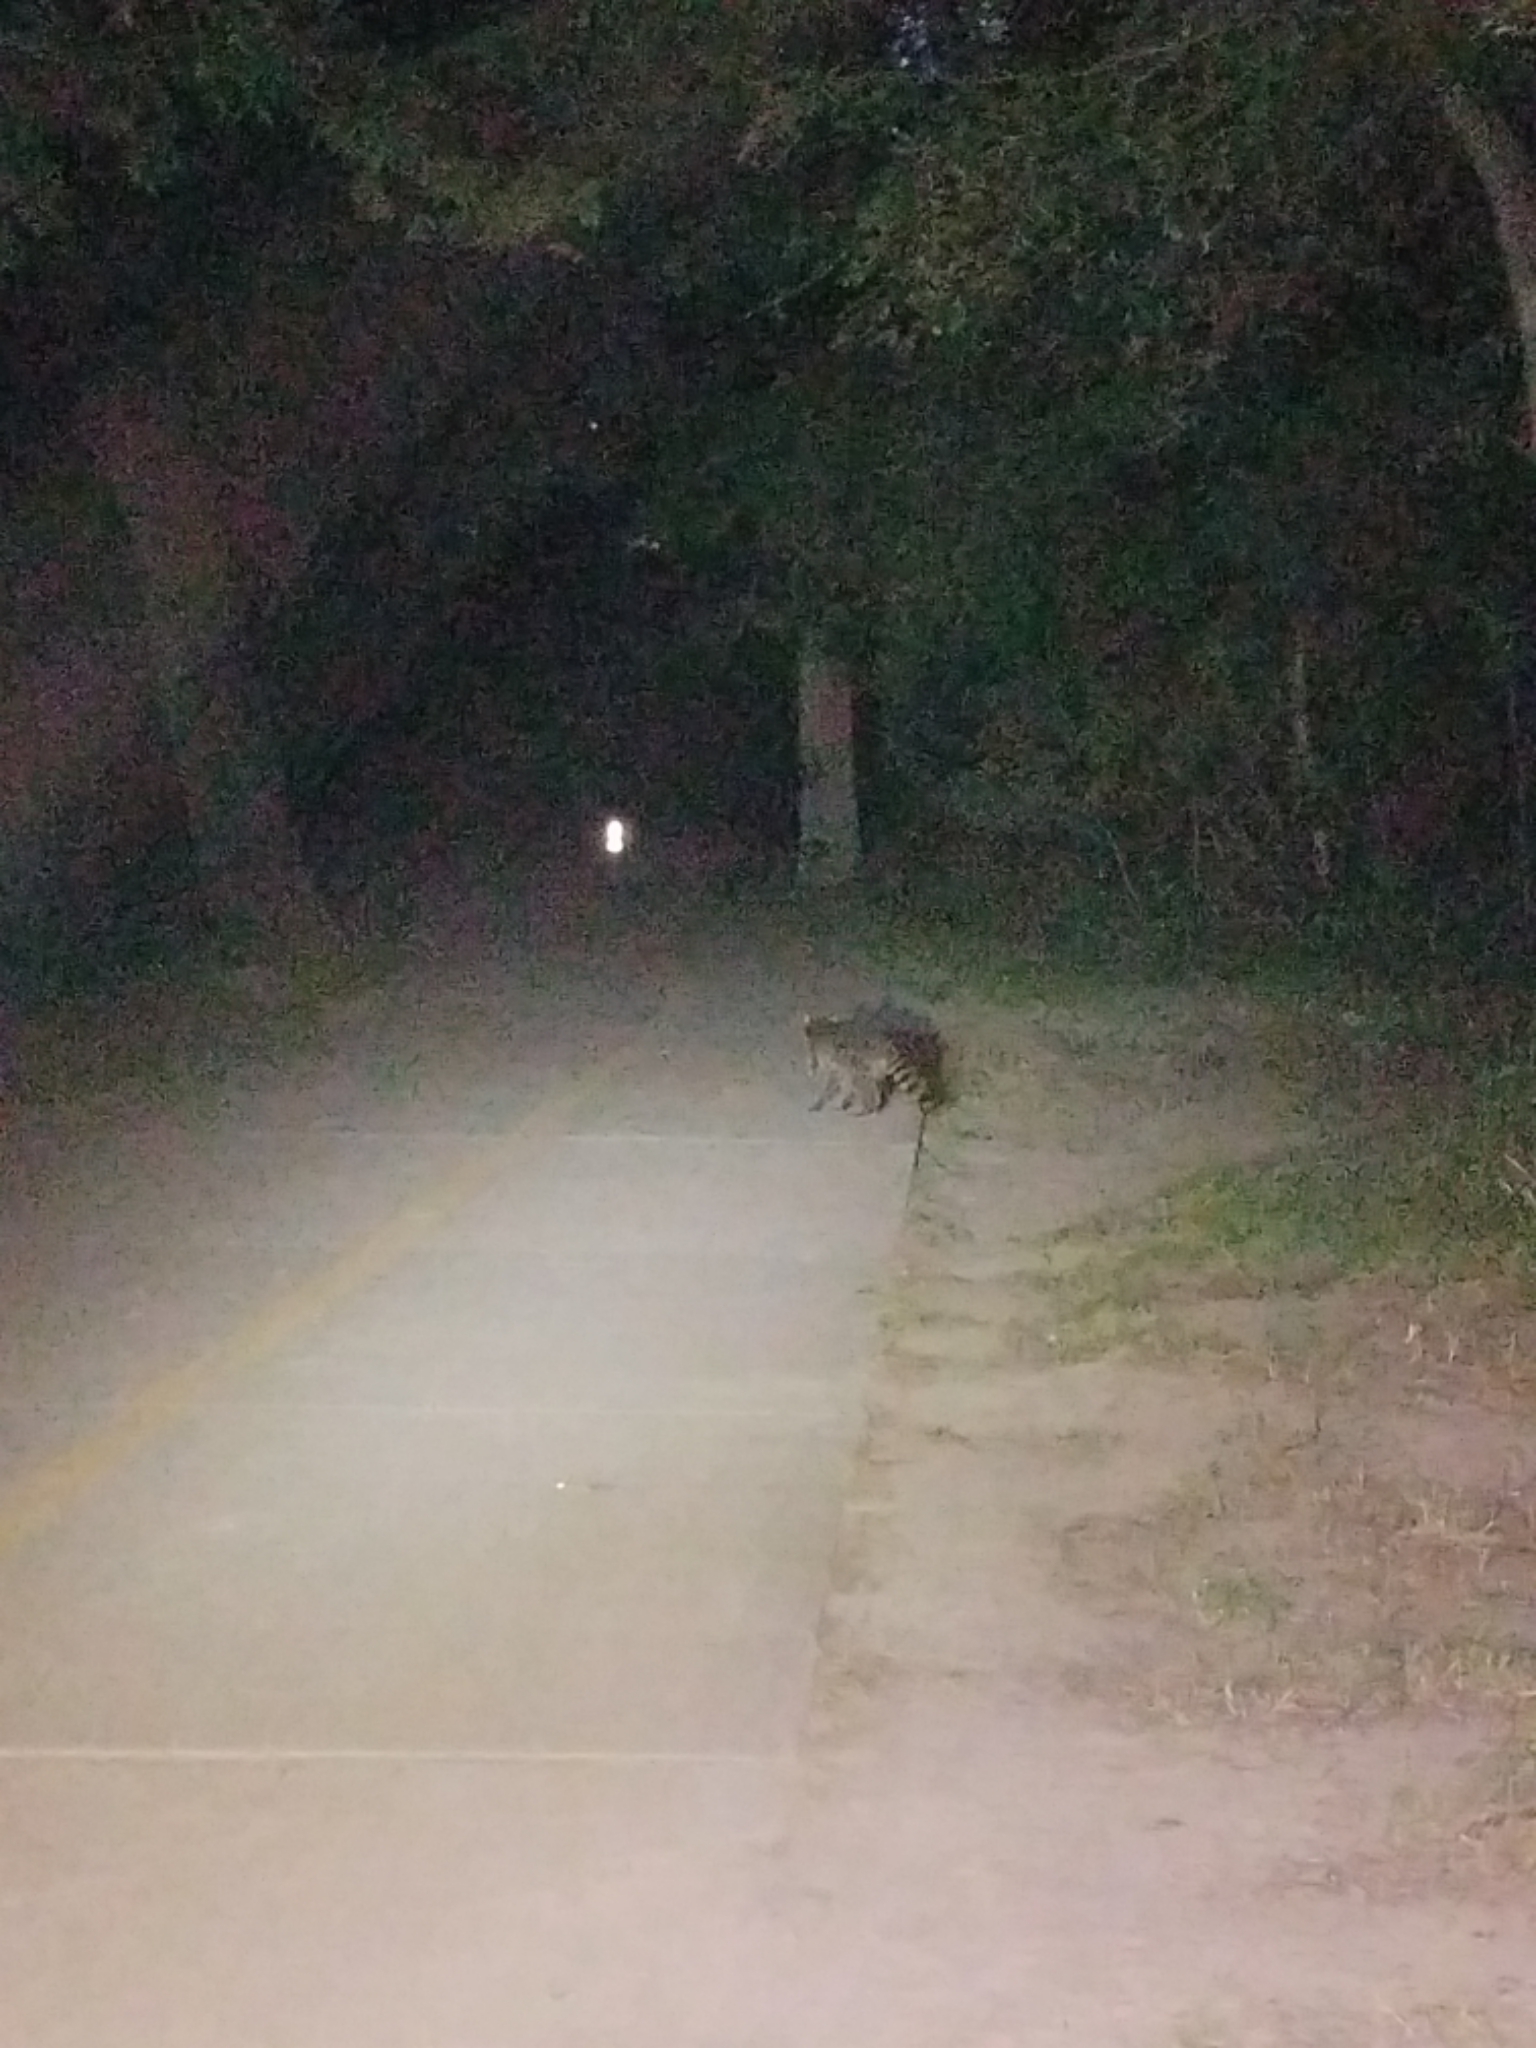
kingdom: Animalia
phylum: Chordata
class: Mammalia
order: Carnivora
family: Procyonidae
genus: Procyon
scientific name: Procyon lotor
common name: Raccoon
